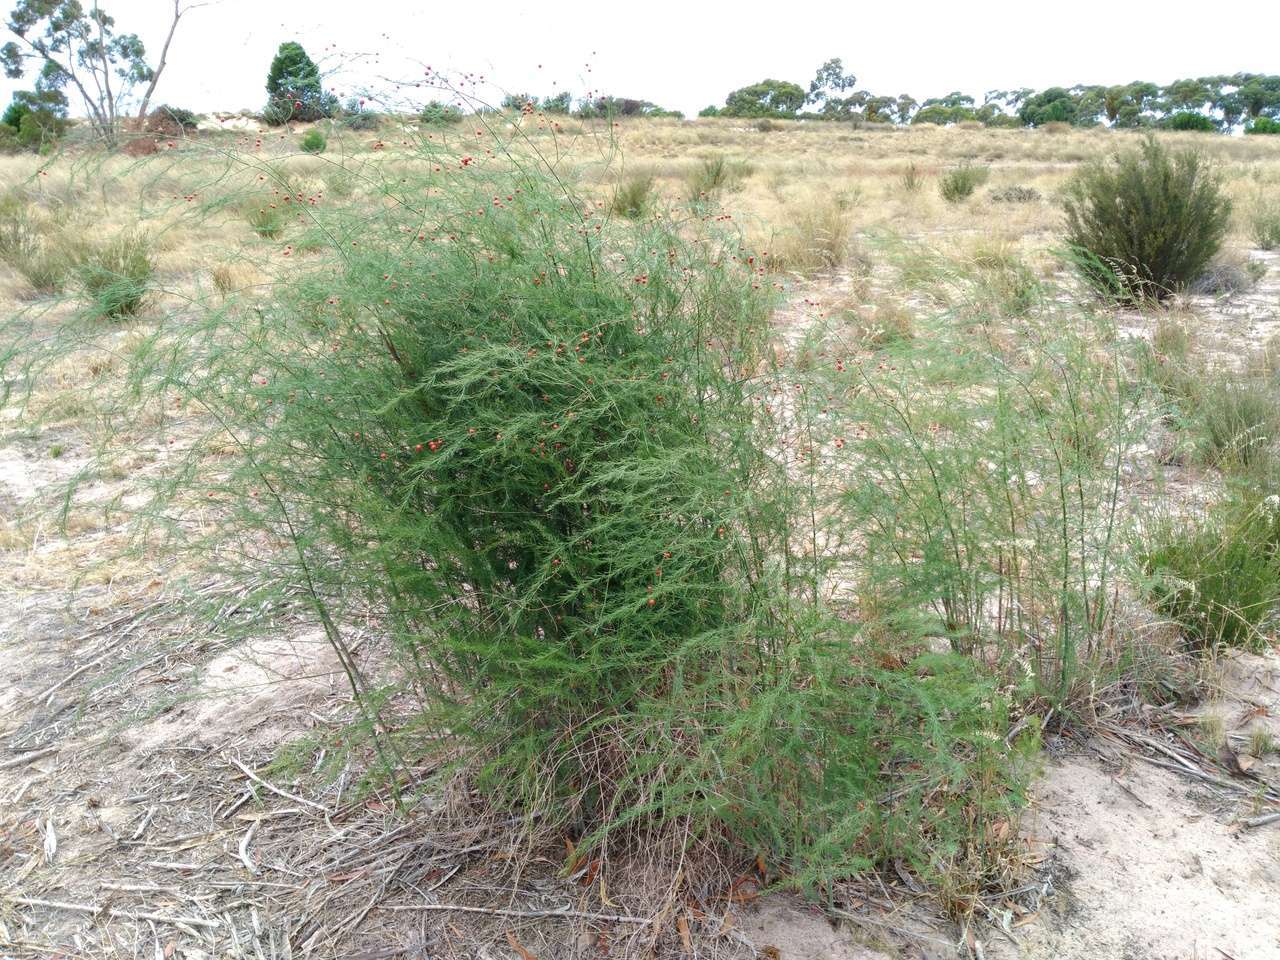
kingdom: Plantae
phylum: Tracheophyta
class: Liliopsida
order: Asparagales
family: Asparagaceae
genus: Asparagus
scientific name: Asparagus officinalis
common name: Garden asparagus
